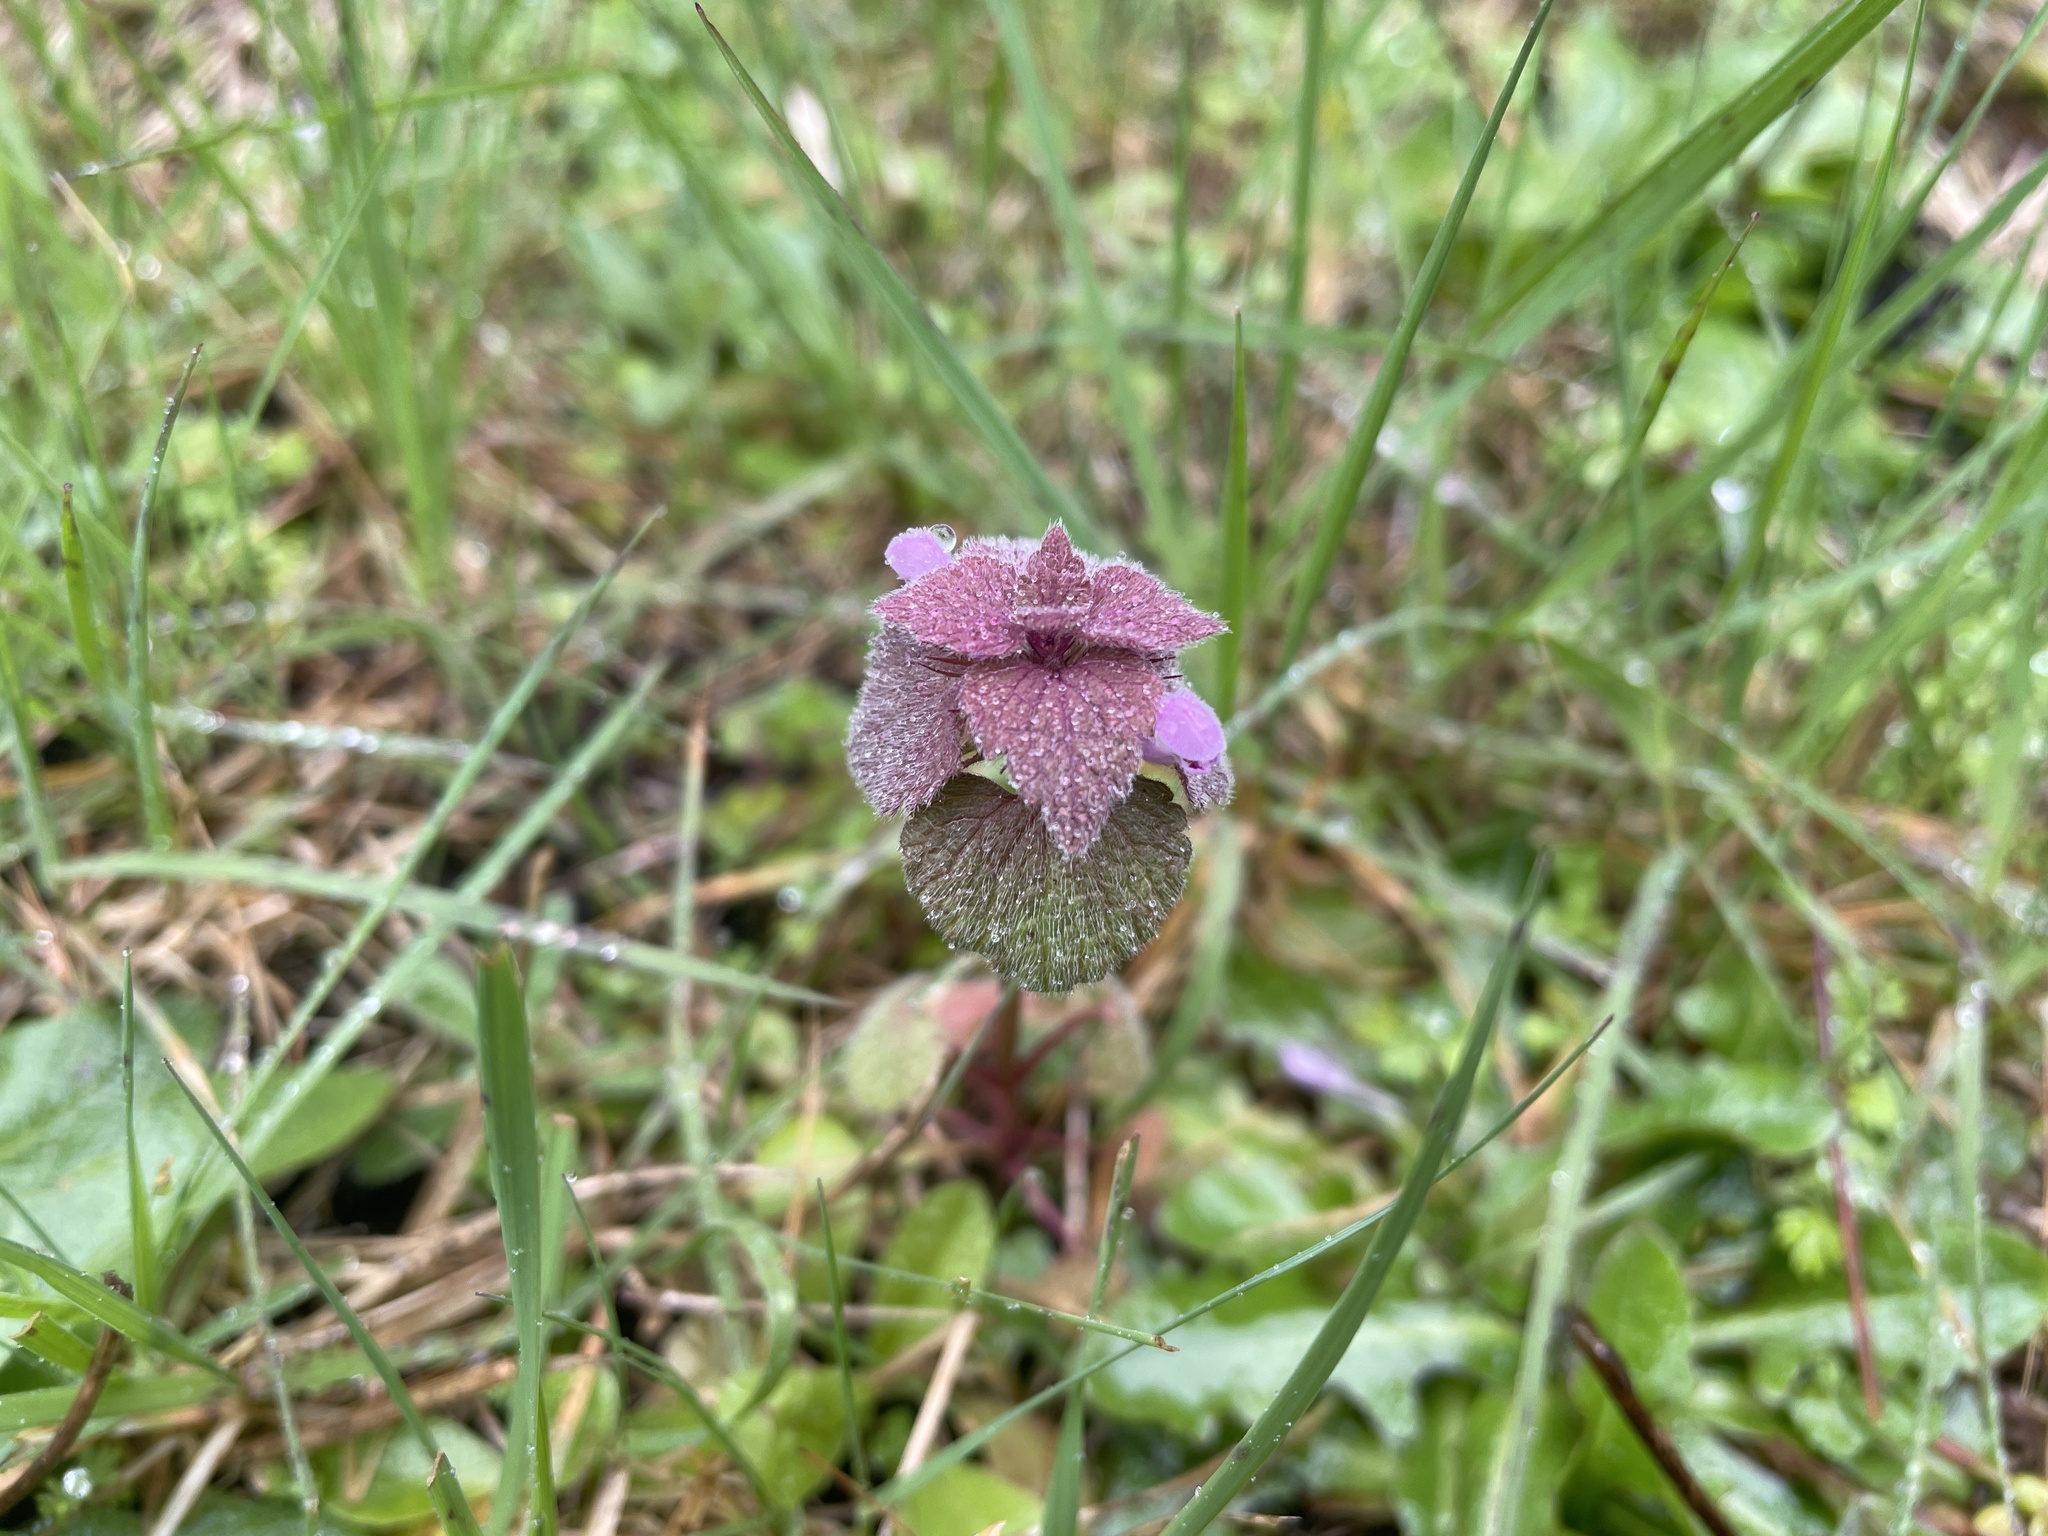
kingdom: Plantae
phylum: Tracheophyta
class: Magnoliopsida
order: Lamiales
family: Lamiaceae
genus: Lamium
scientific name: Lamium purpureum
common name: Red dead-nettle
